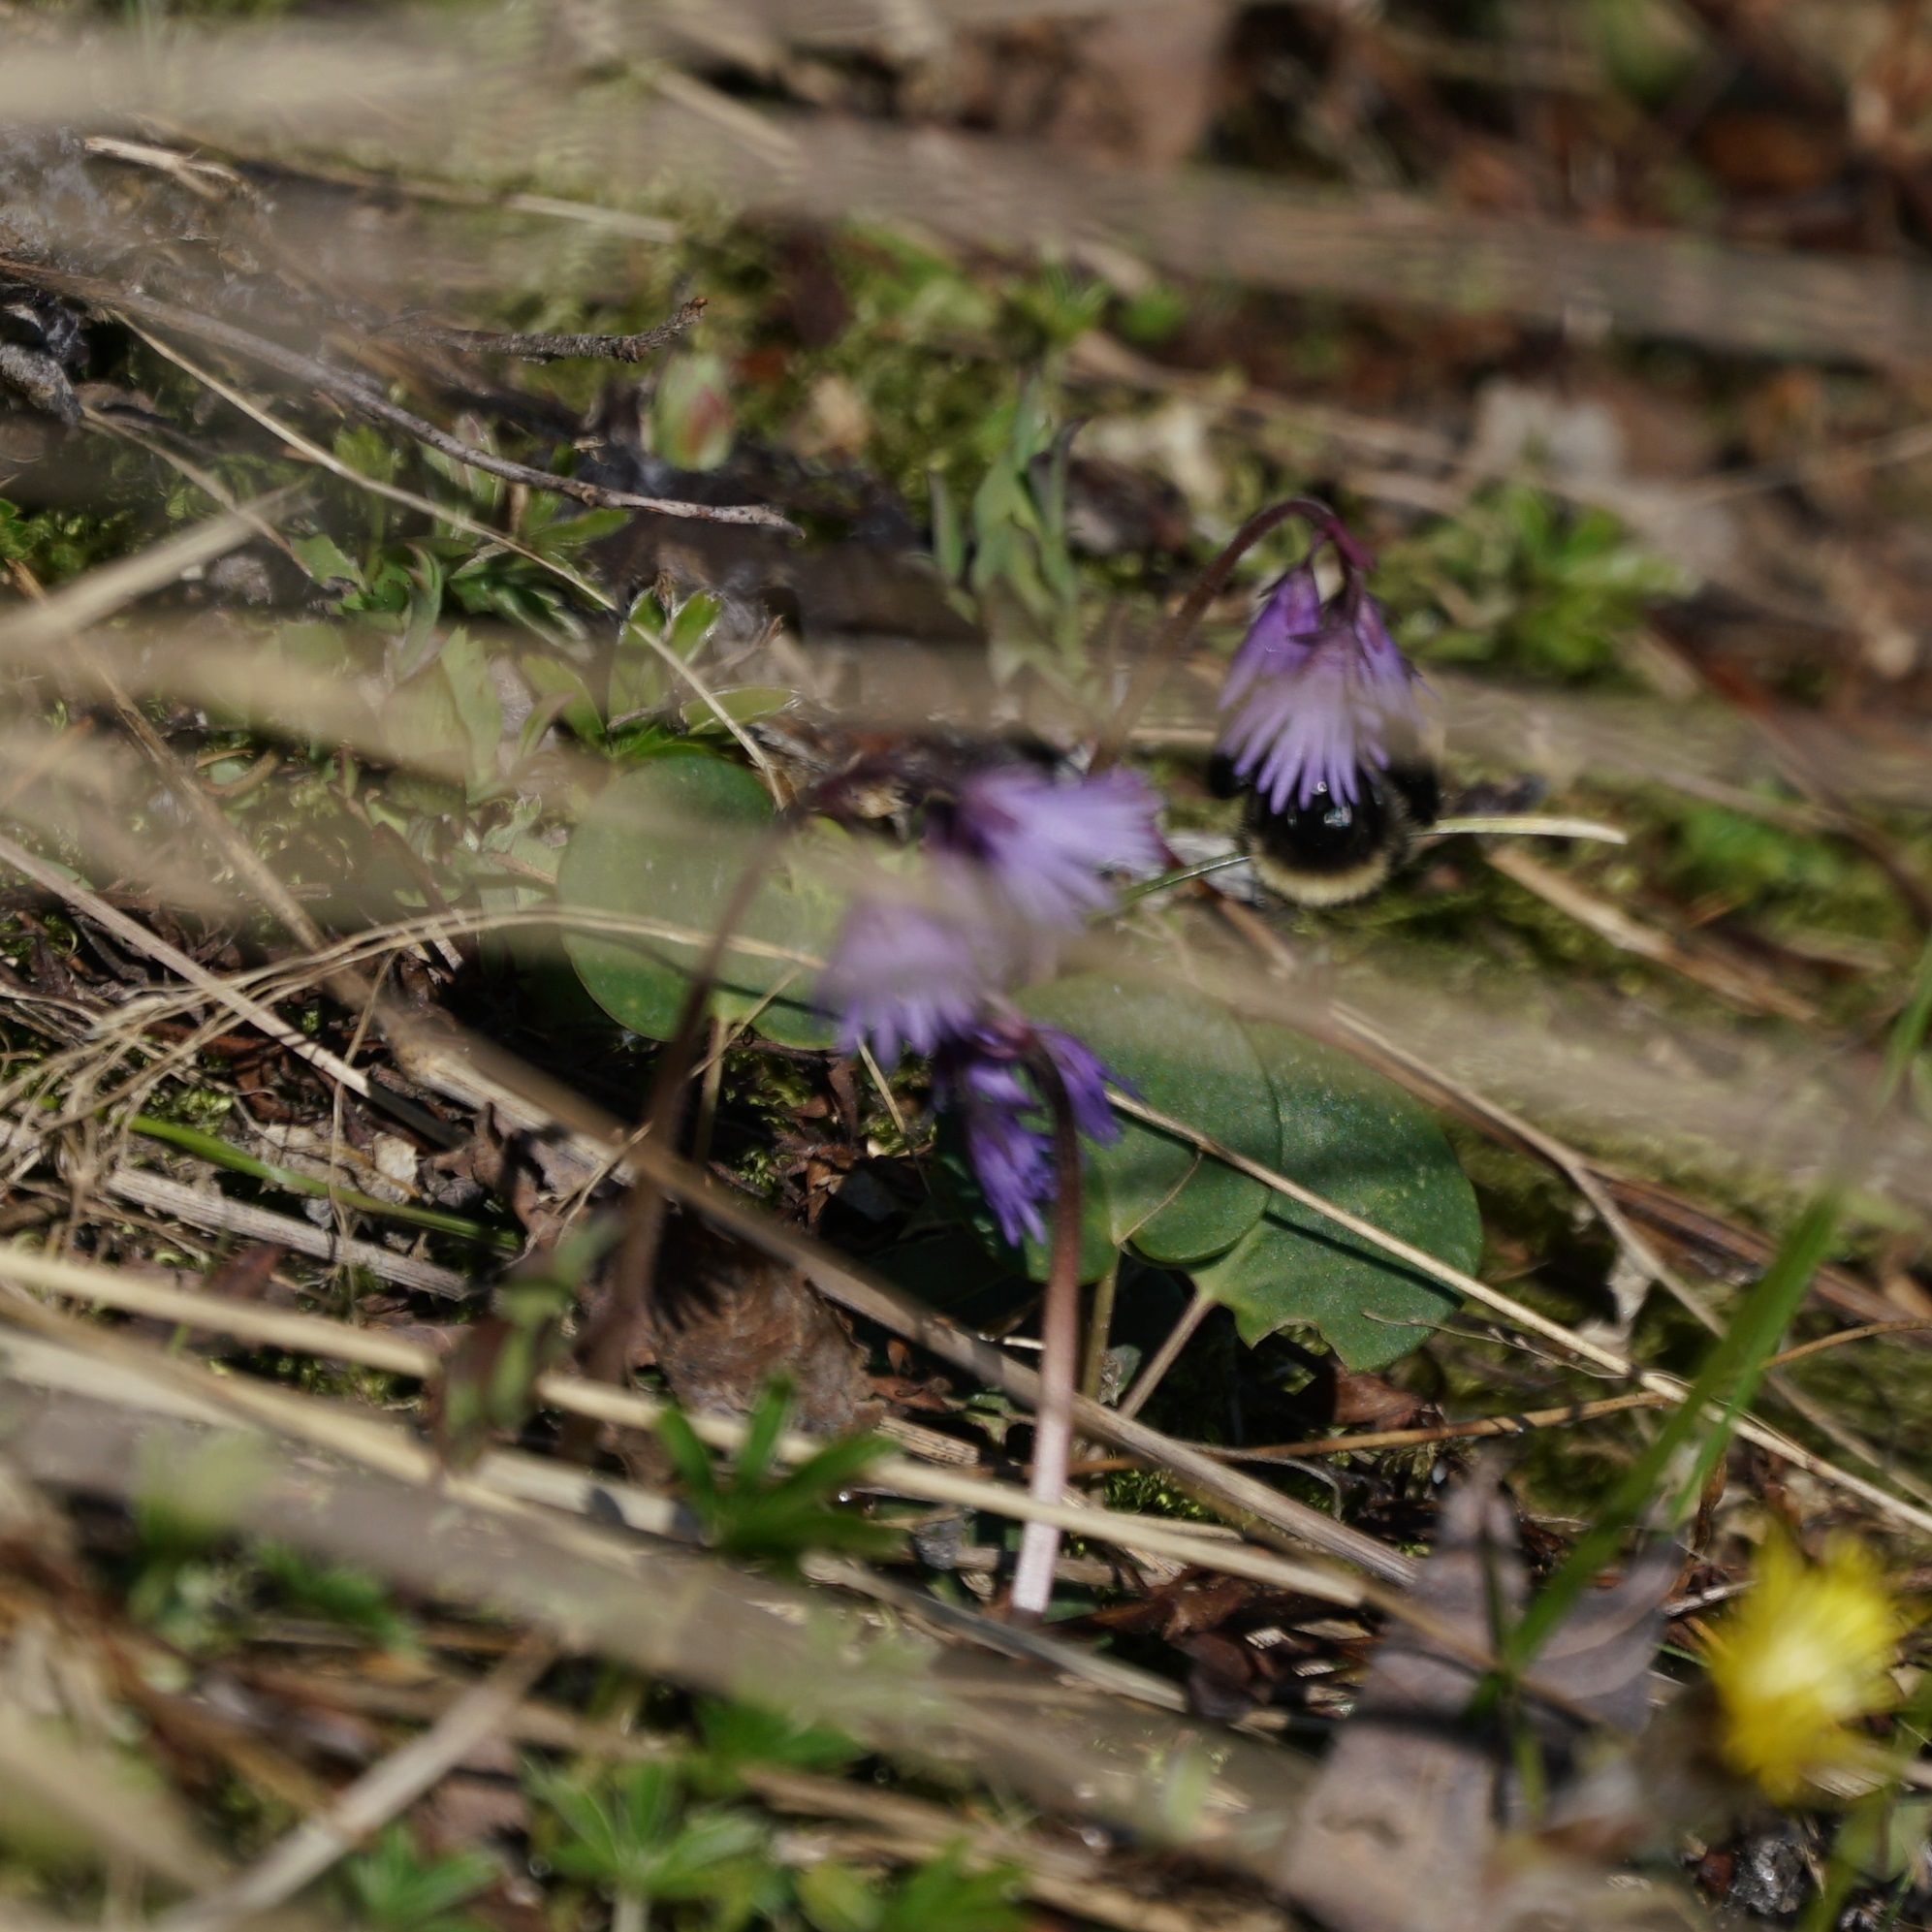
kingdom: Plantae
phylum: Tracheophyta
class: Magnoliopsida
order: Ericales
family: Primulaceae
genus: Soldanella
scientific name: Soldanella carpatica
